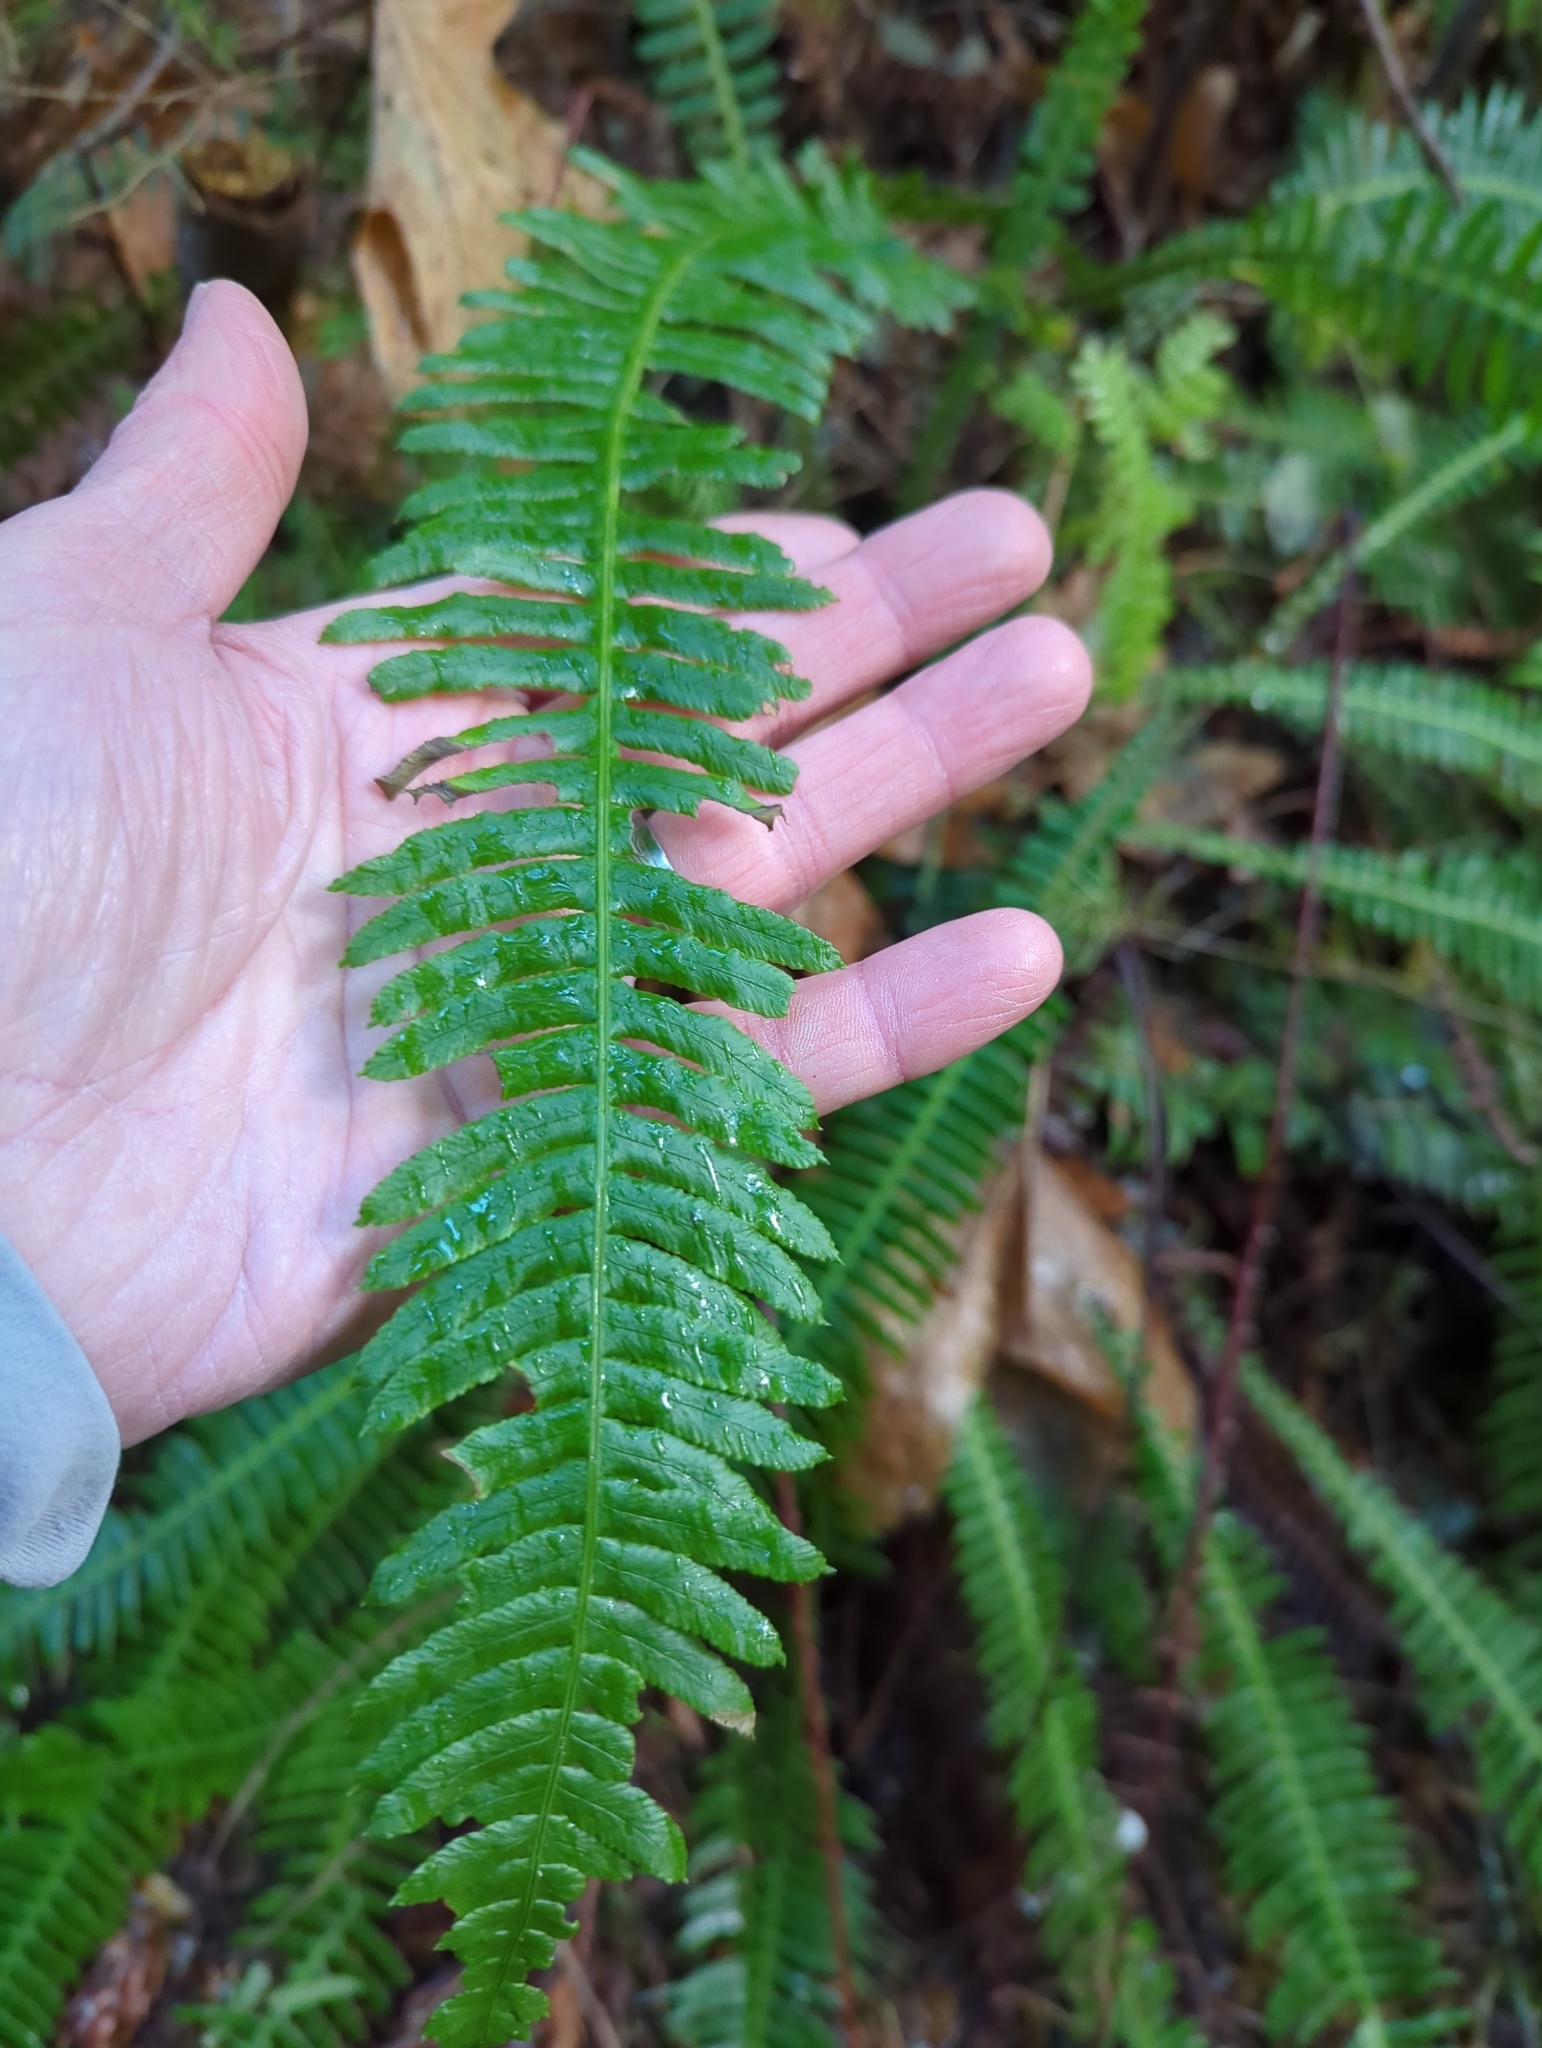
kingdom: Plantae
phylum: Tracheophyta
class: Polypodiopsida
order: Polypodiales
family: Blechnaceae
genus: Struthiopteris
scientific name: Struthiopteris spicant
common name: Deer fern
